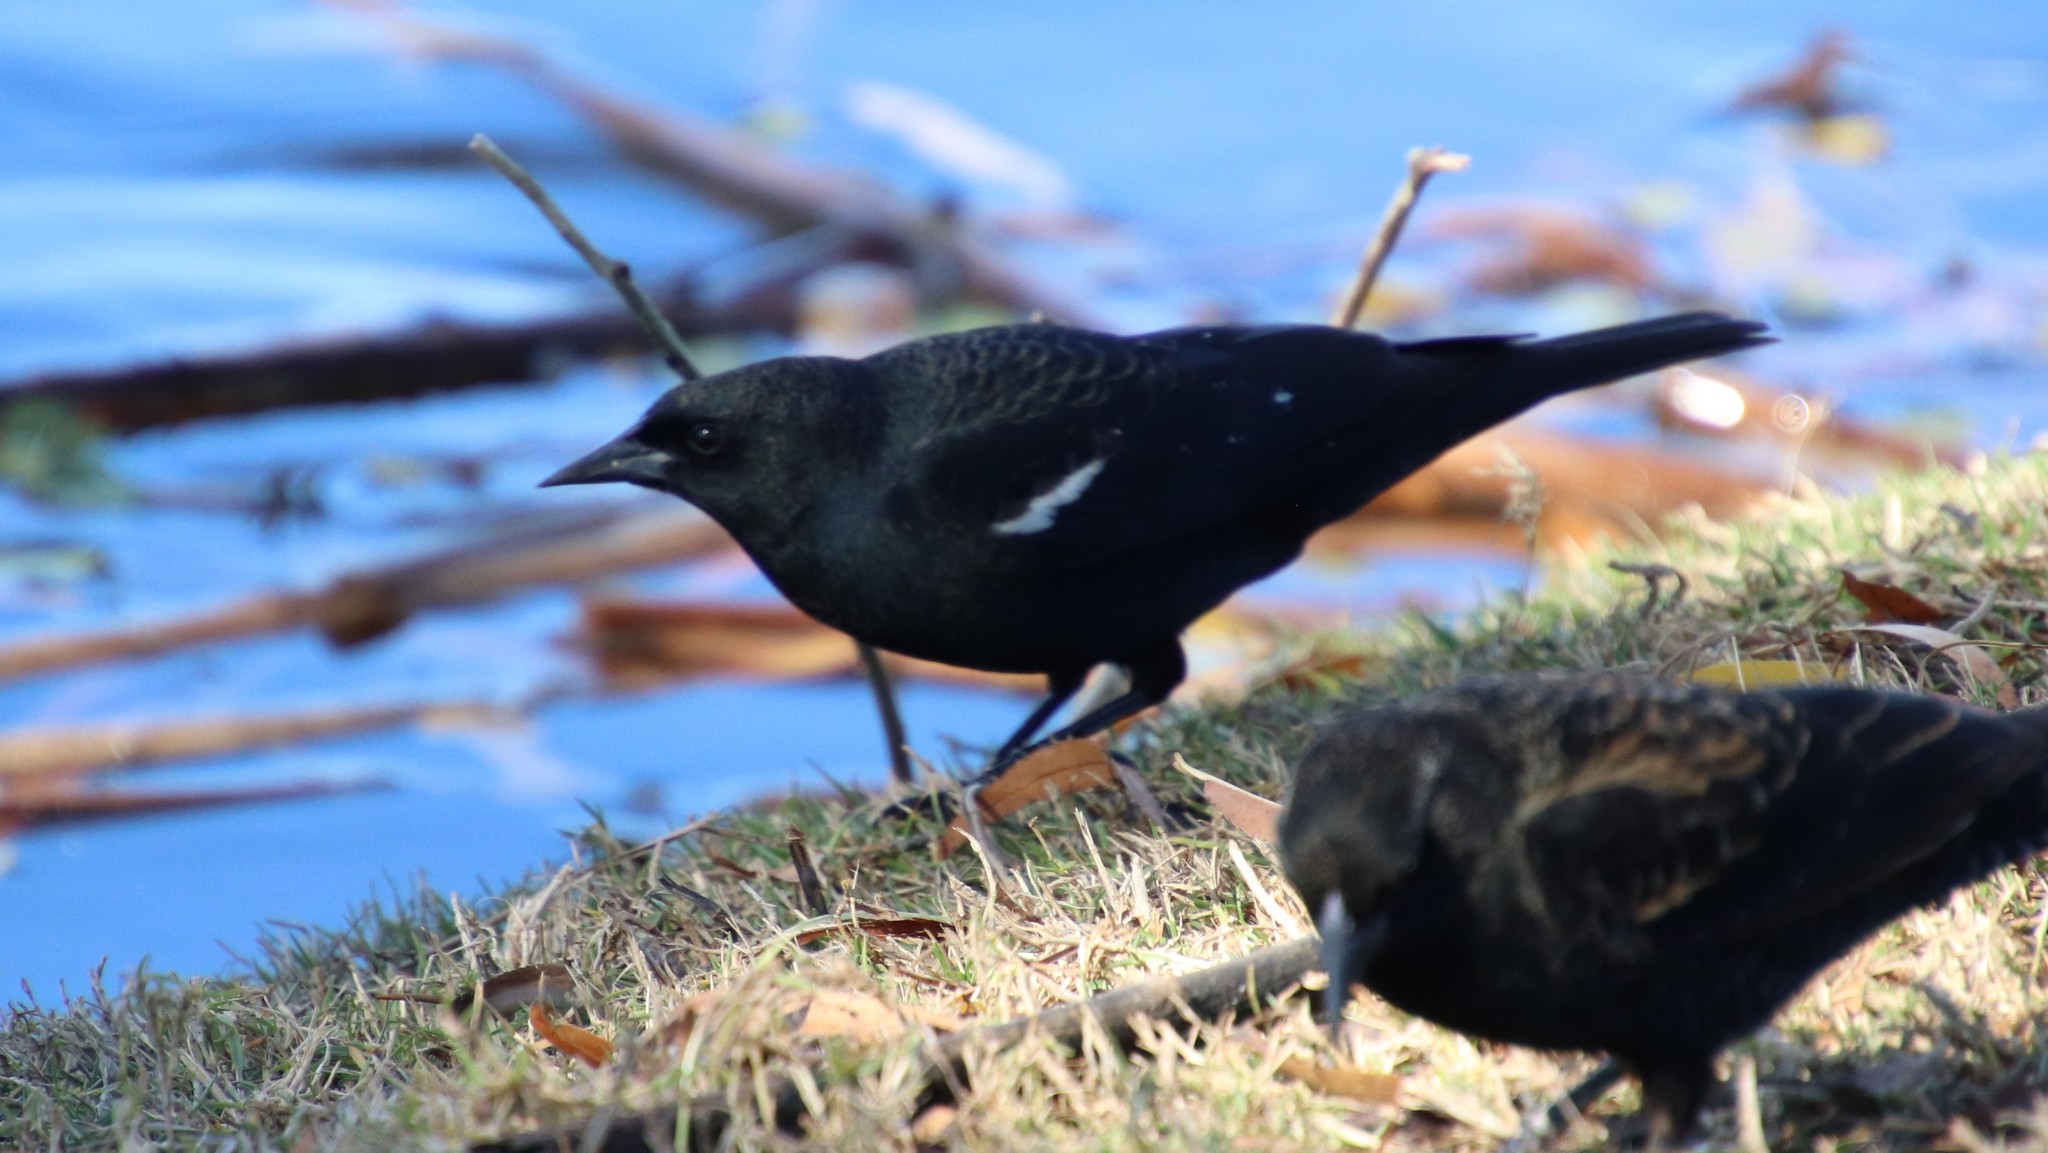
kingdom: Animalia
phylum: Chordata
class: Aves
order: Passeriformes
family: Icteridae
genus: Agelaius
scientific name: Agelaius tricolor
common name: Tricolored blackbird
